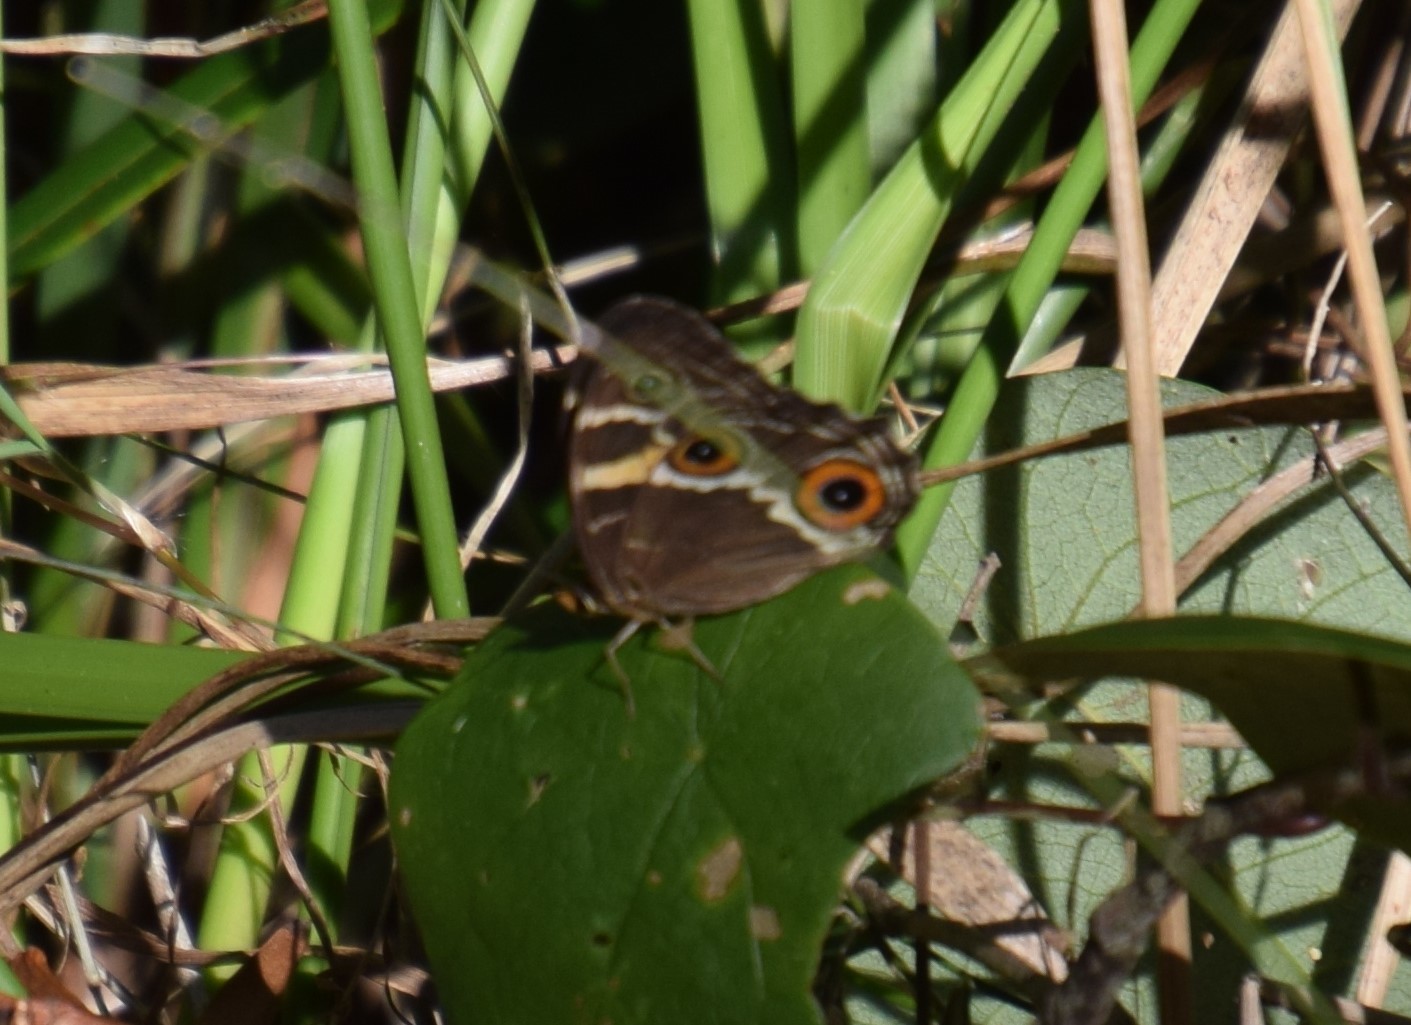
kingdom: Animalia
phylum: Arthropoda
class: Insecta
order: Lepidoptera
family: Nymphalidae
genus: Tisiphone
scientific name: Tisiphone abeona
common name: Swordgrass brown
